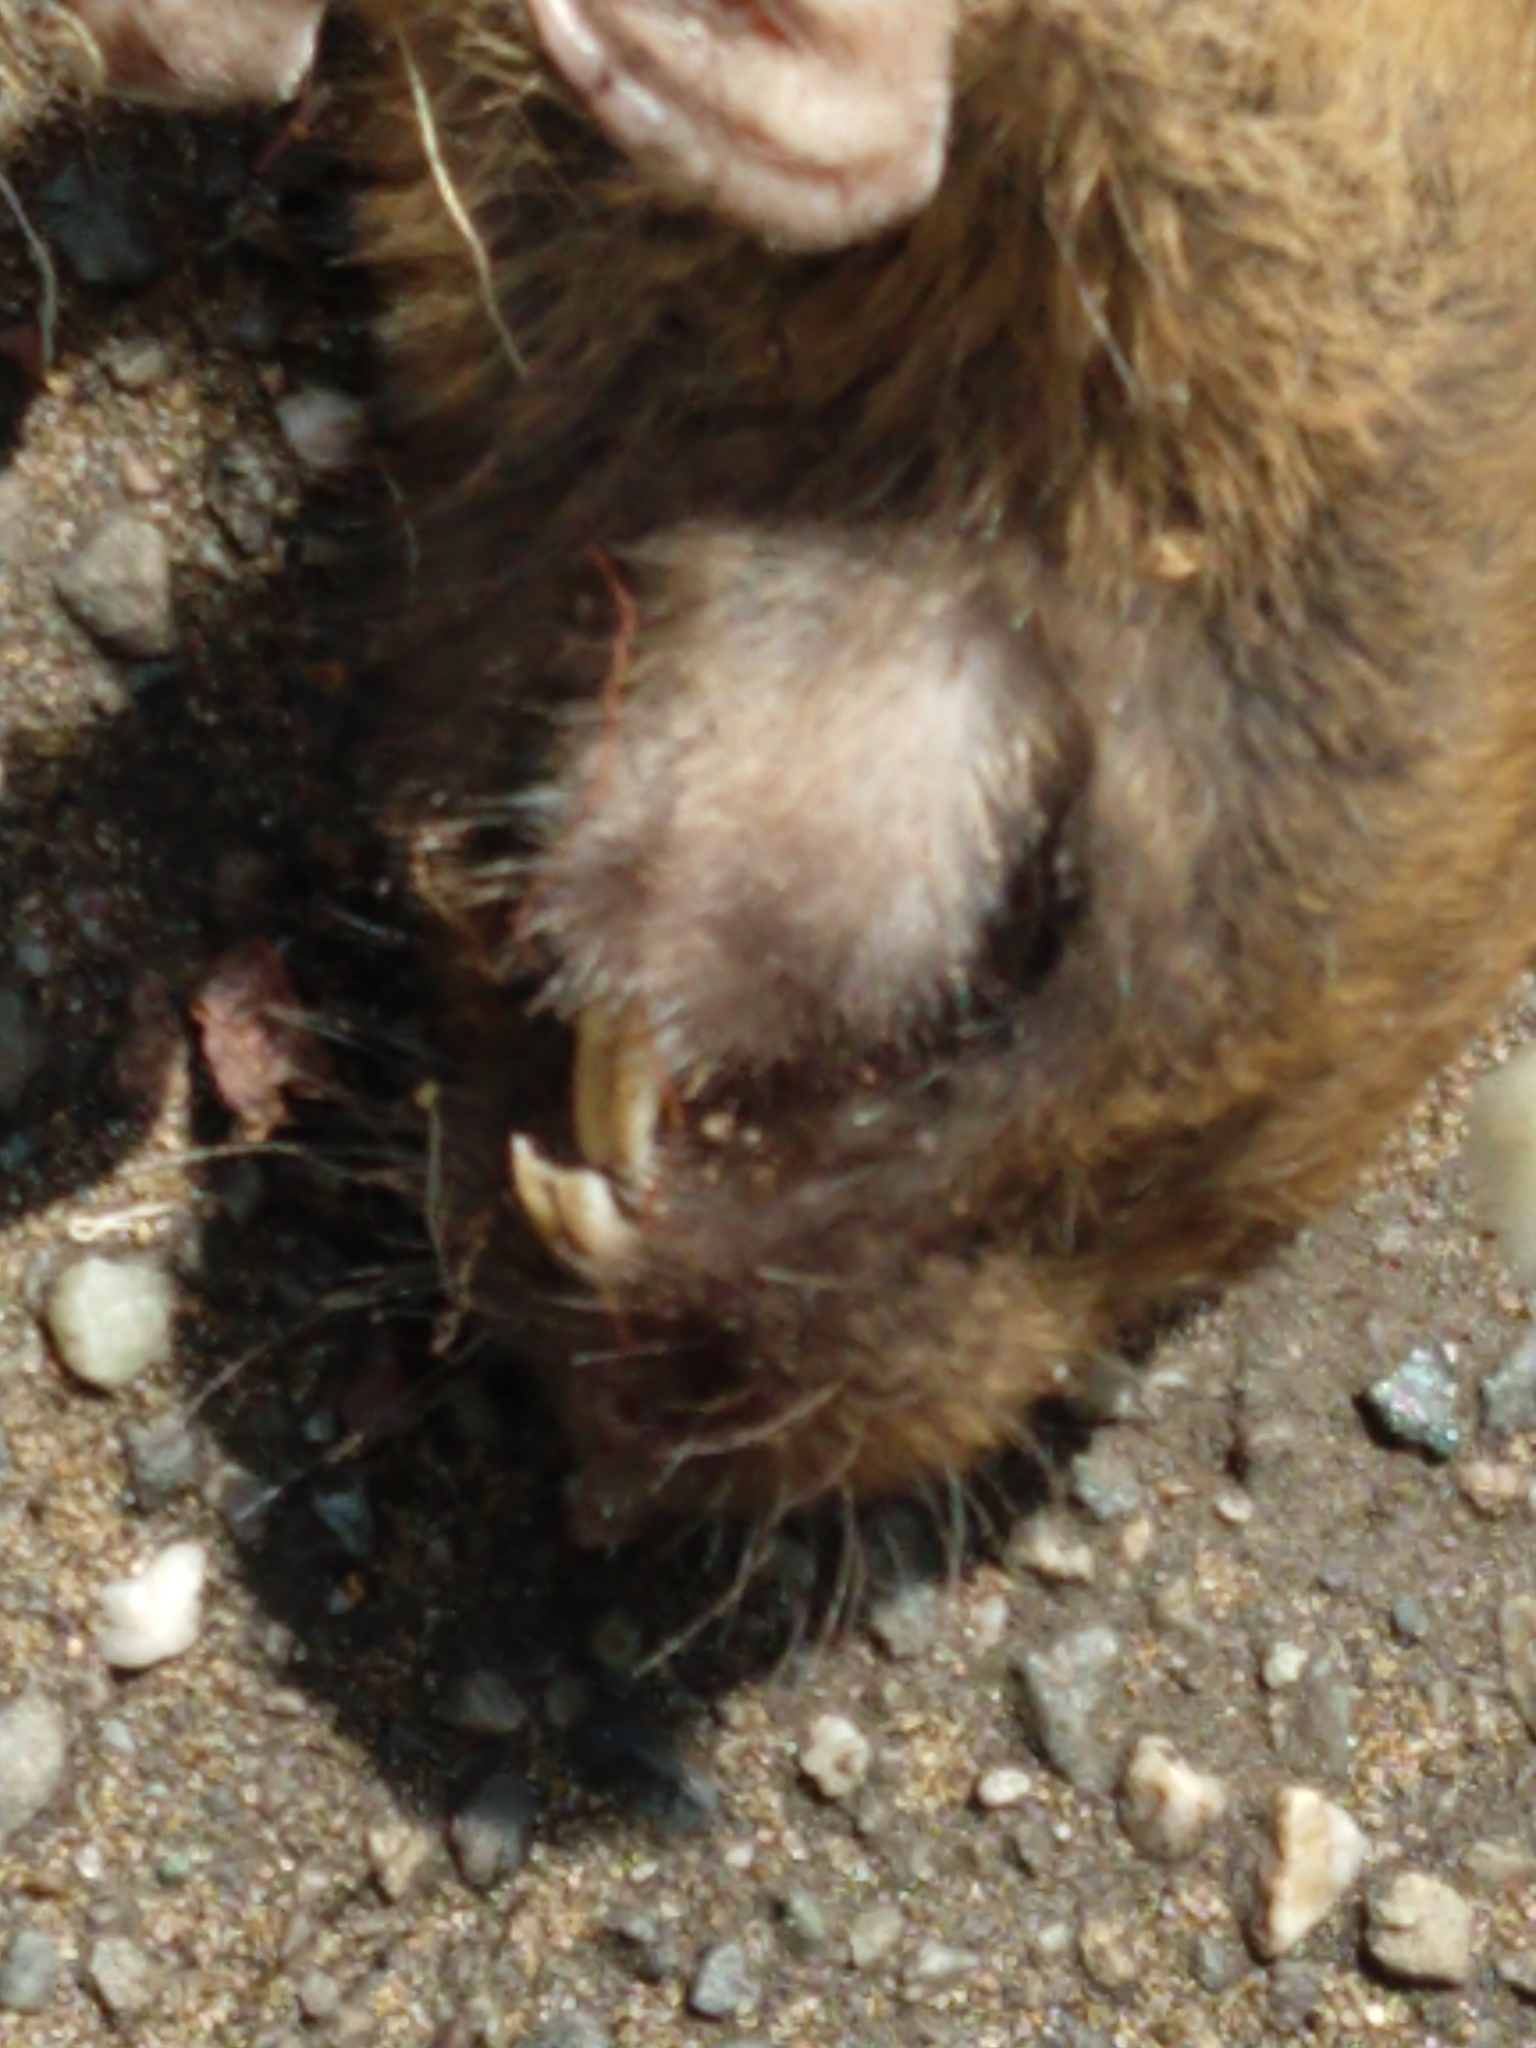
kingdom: Animalia
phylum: Chordata
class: Mammalia
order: Rodentia
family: Geomyidae
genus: Thomomys
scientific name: Thomomys bottae
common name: Botta's pocket gopher
